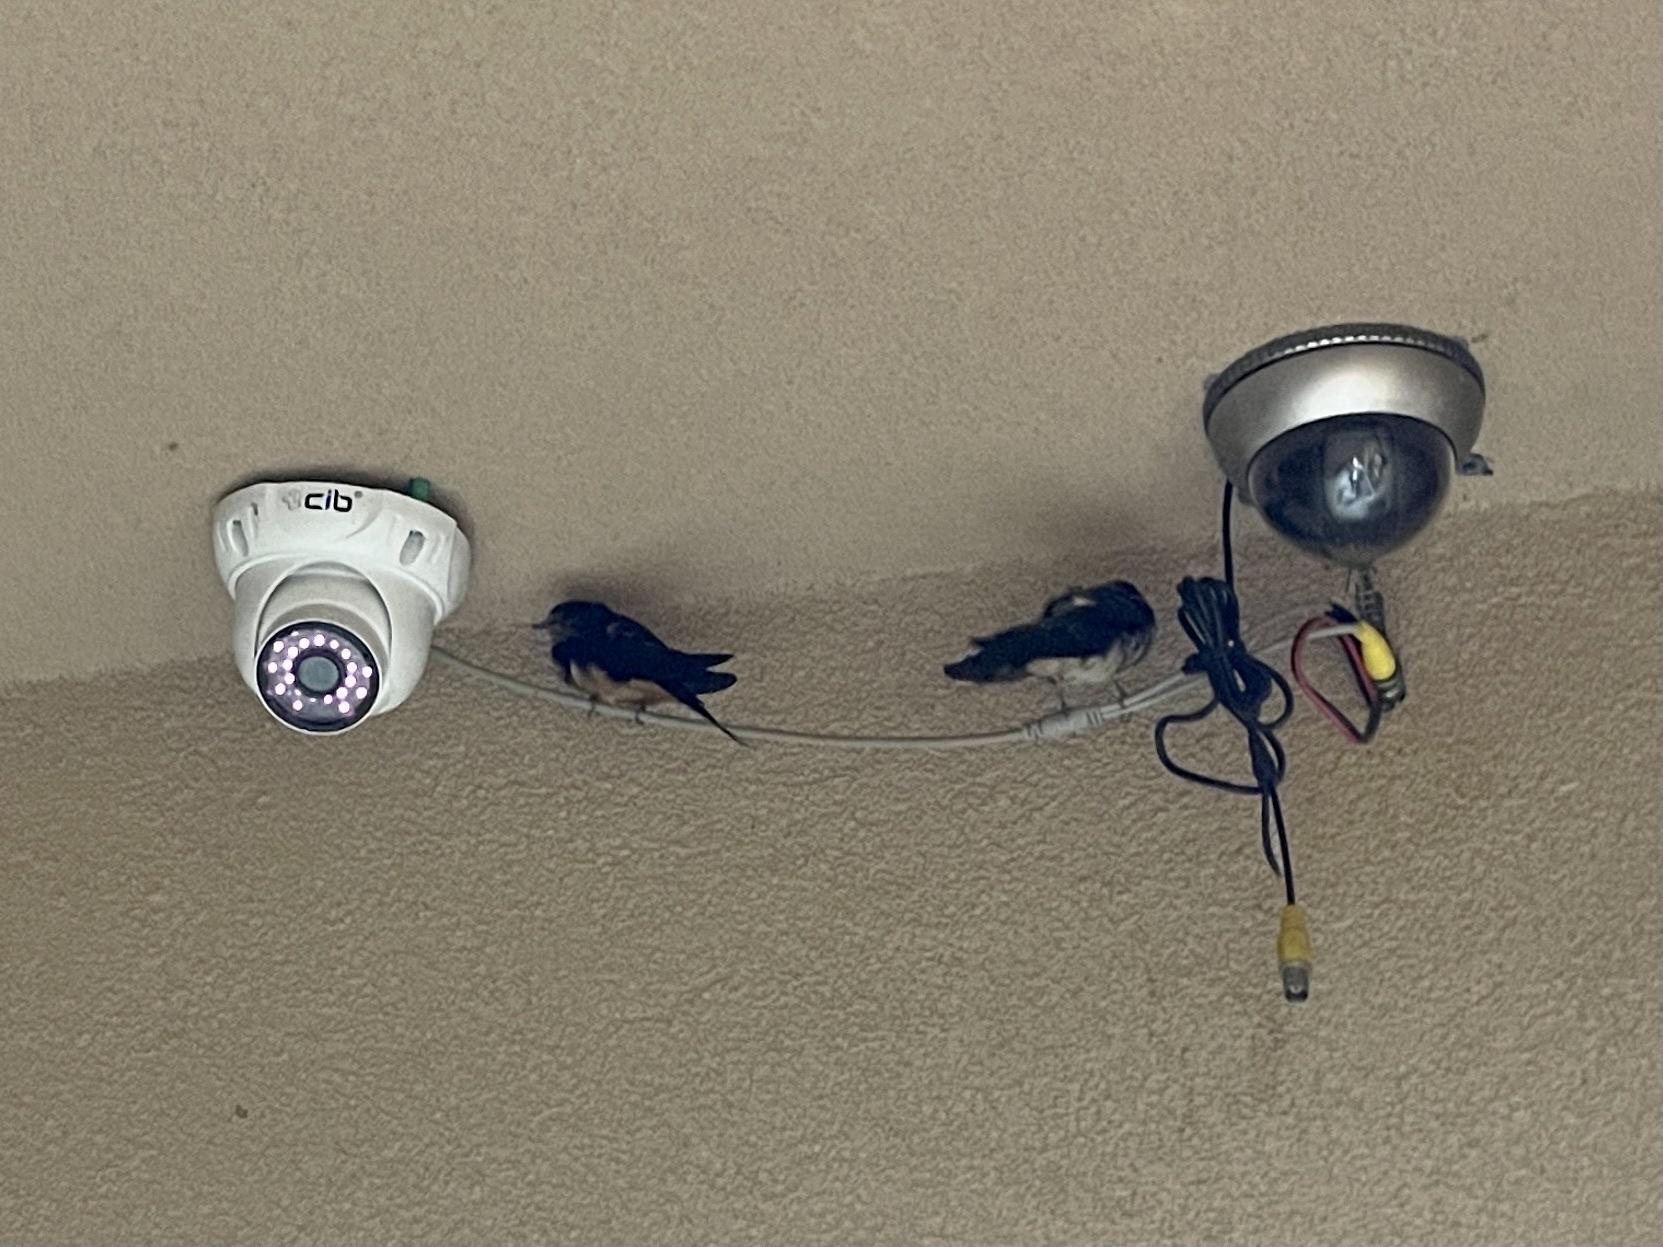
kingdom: Animalia
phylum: Chordata
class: Aves
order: Passeriformes
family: Hirundinidae
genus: Hirundo
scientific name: Hirundo rustica
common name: Barn swallow
